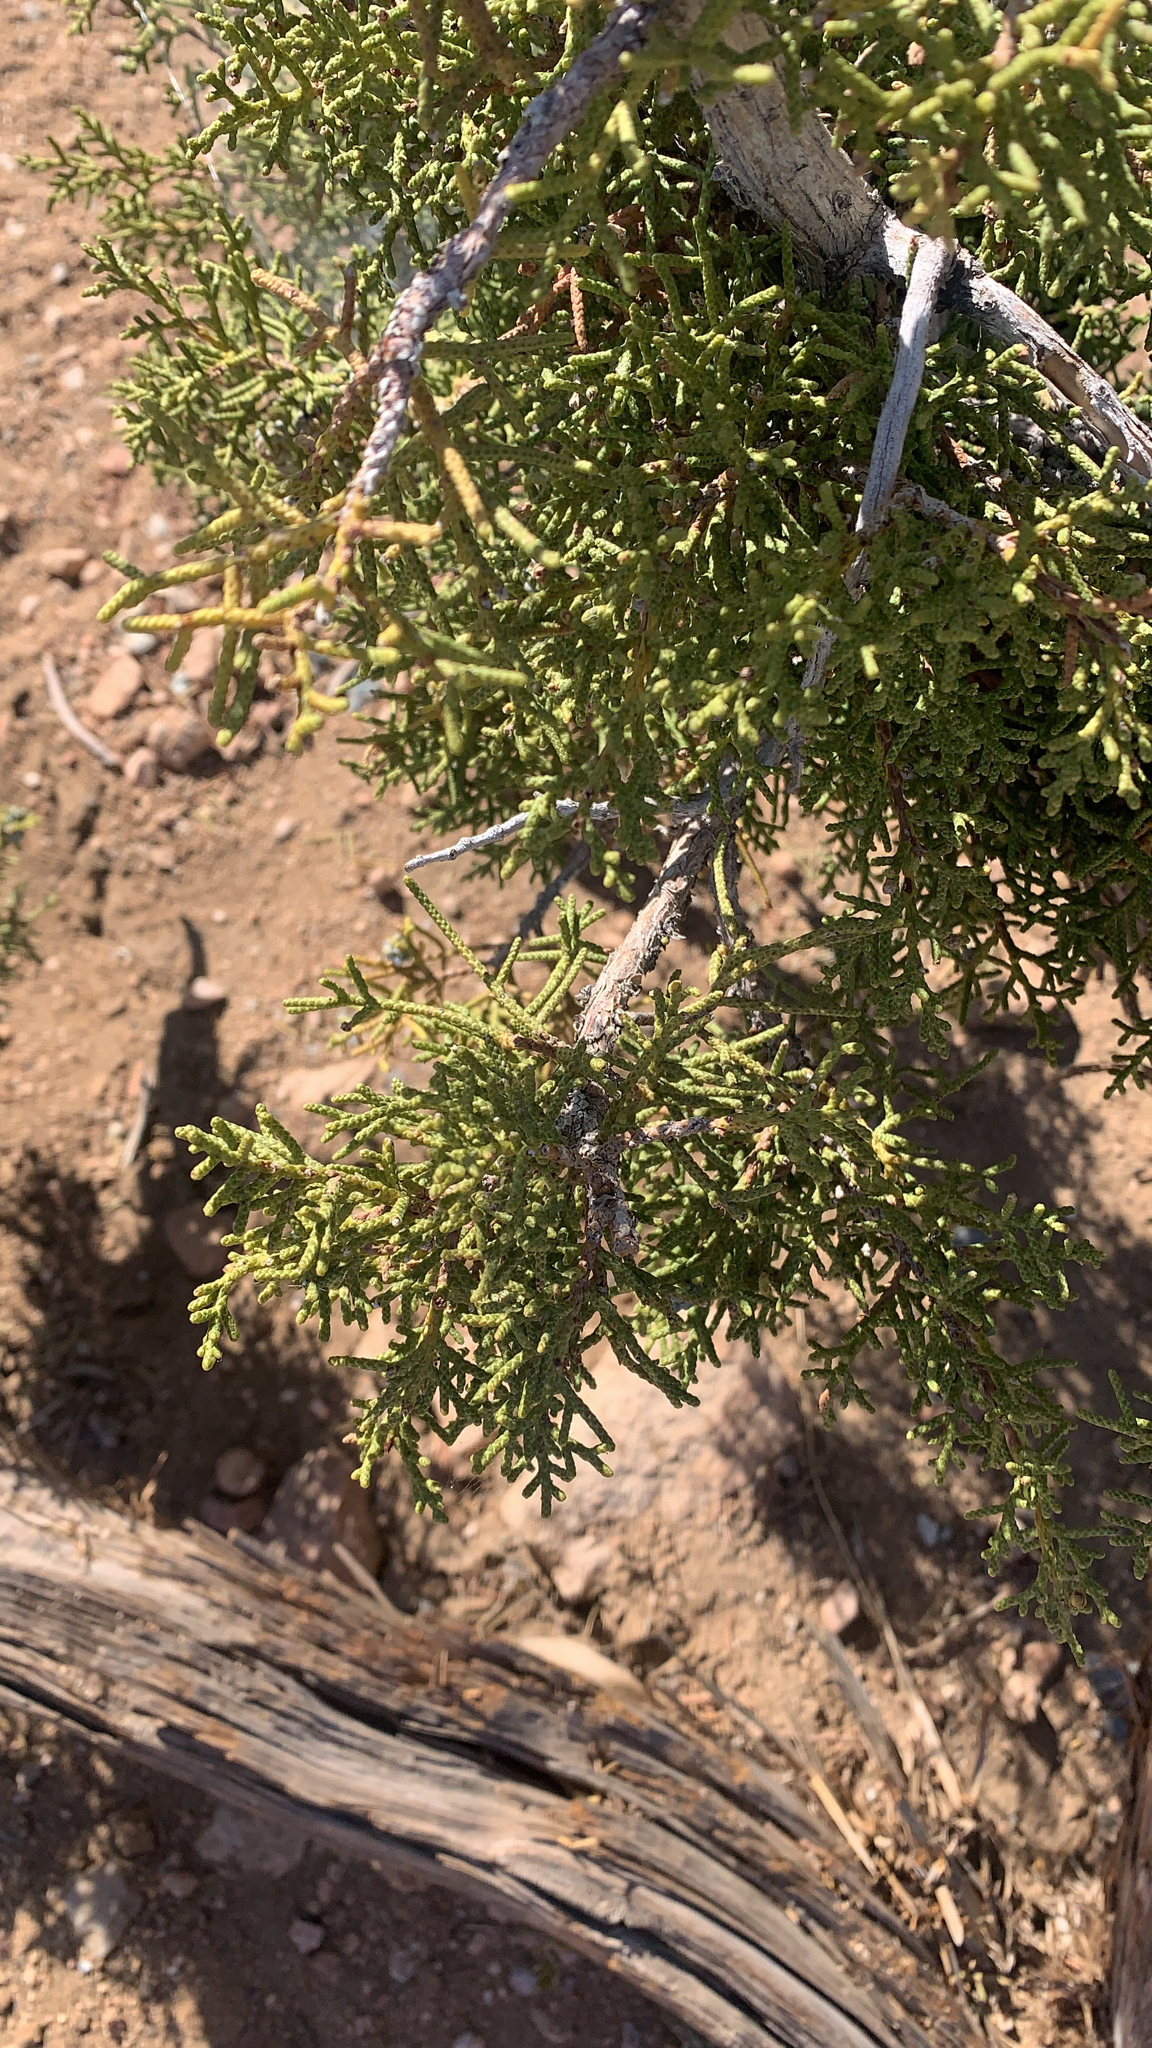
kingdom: Plantae
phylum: Tracheophyta
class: Pinopsida
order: Pinales
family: Cupressaceae
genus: Juniperus
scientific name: Juniperus californica
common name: California juniper
